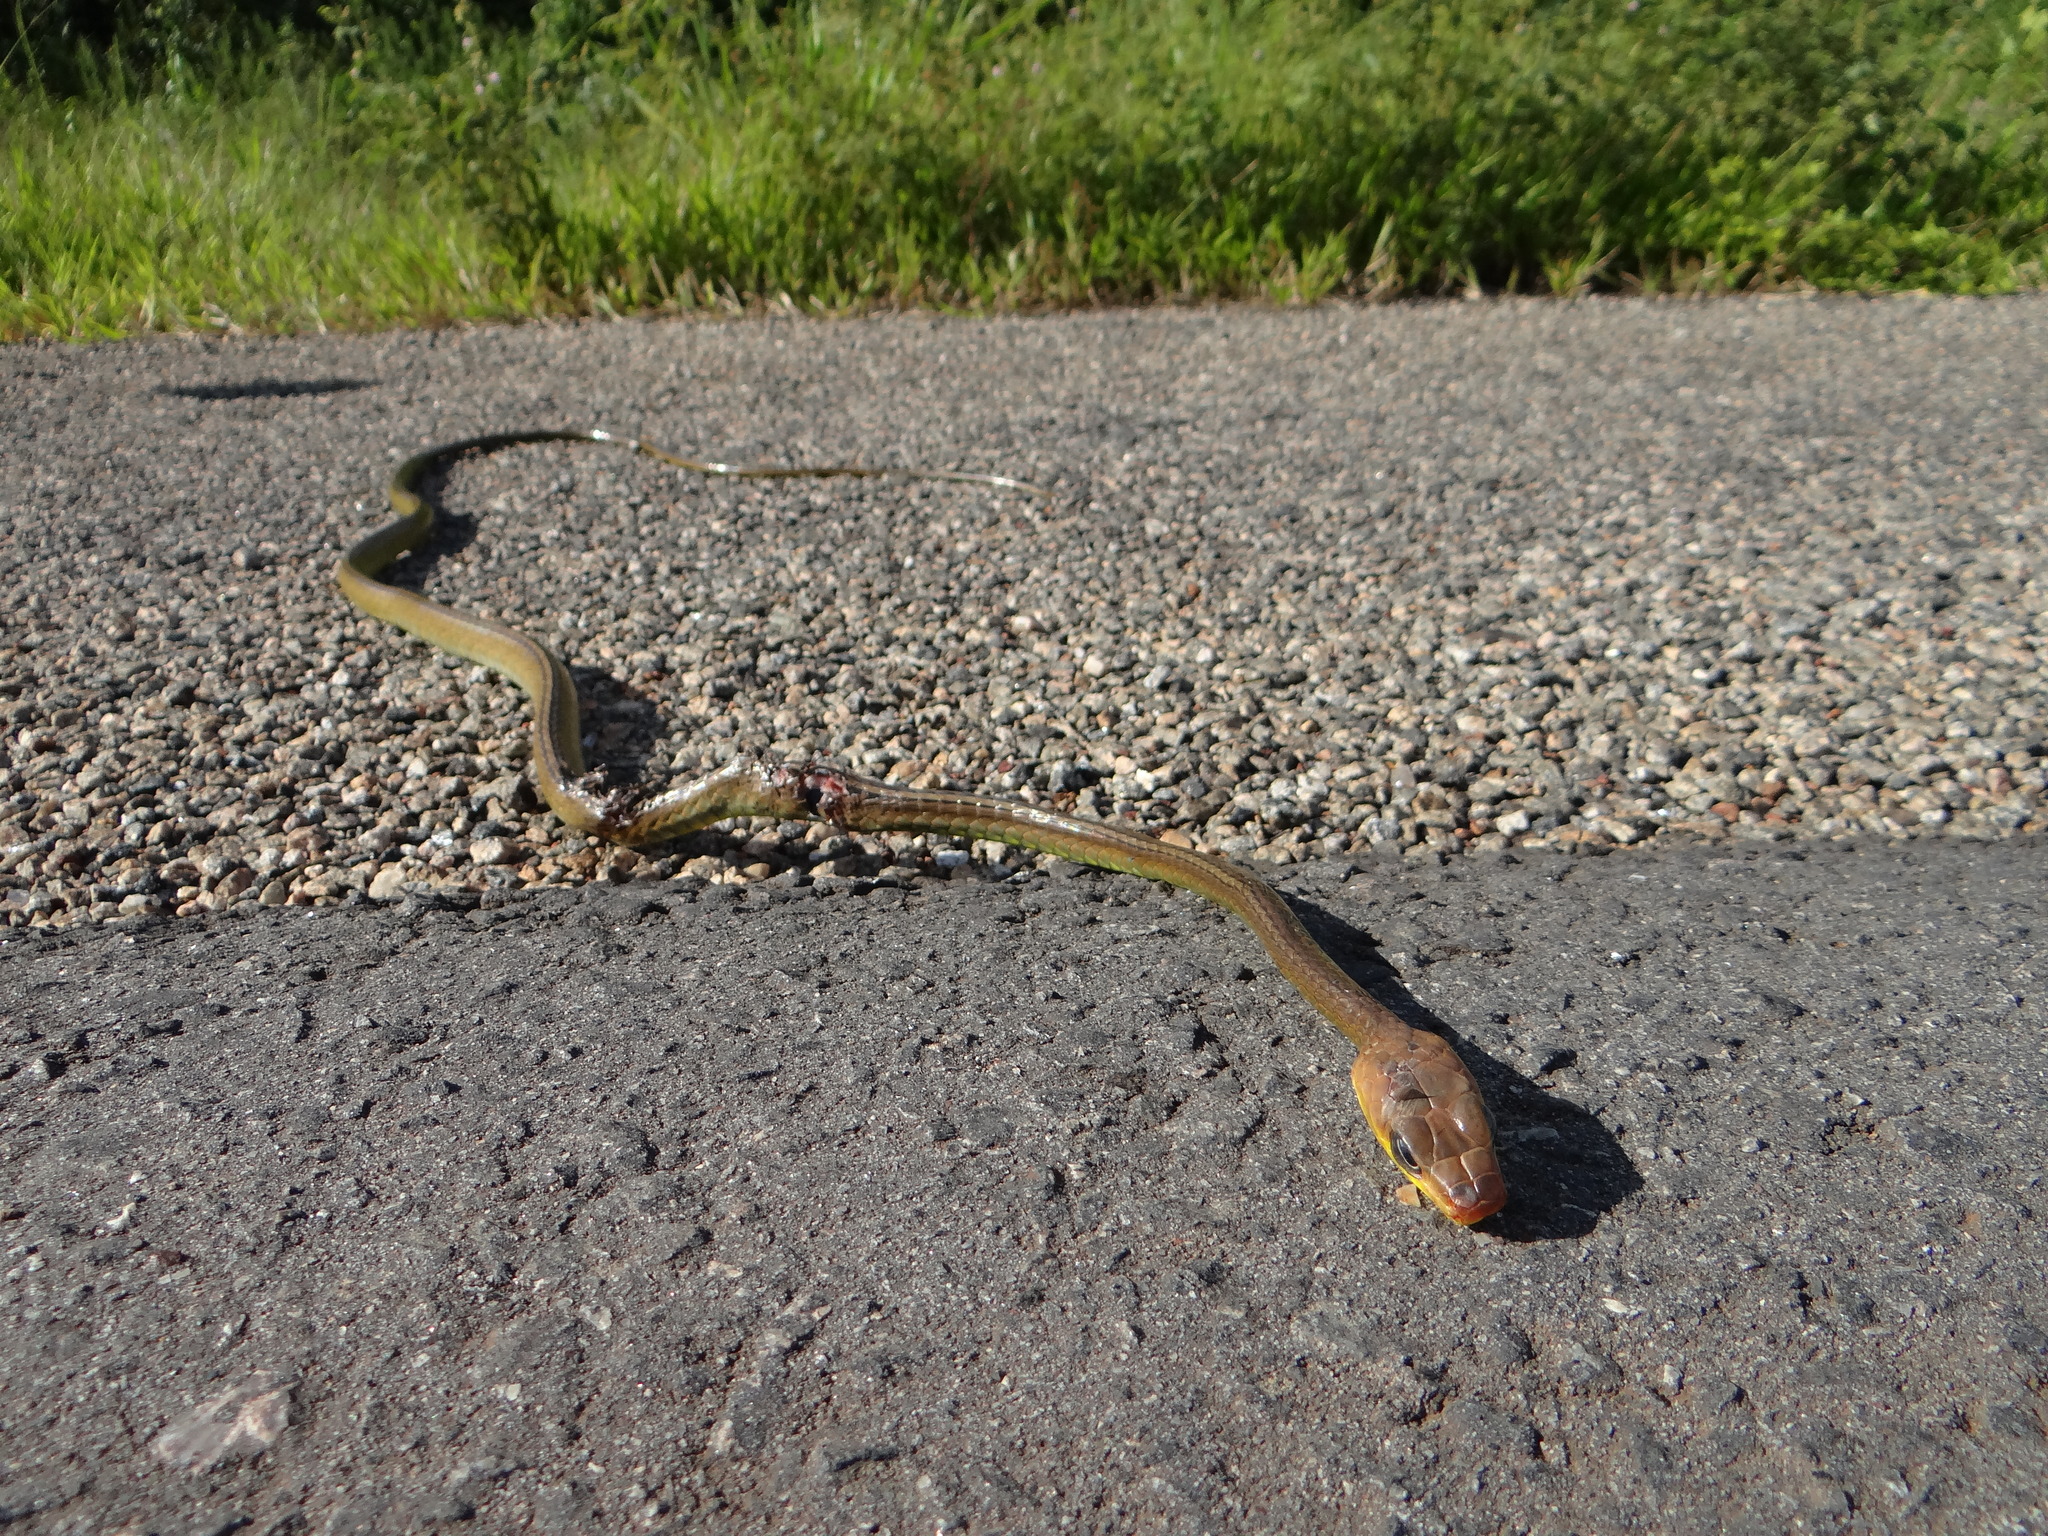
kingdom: Animalia
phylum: Chordata
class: Squamata
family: Colubridae
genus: Chironius
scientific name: Chironius exoletus
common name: Linnaeus' sipo
